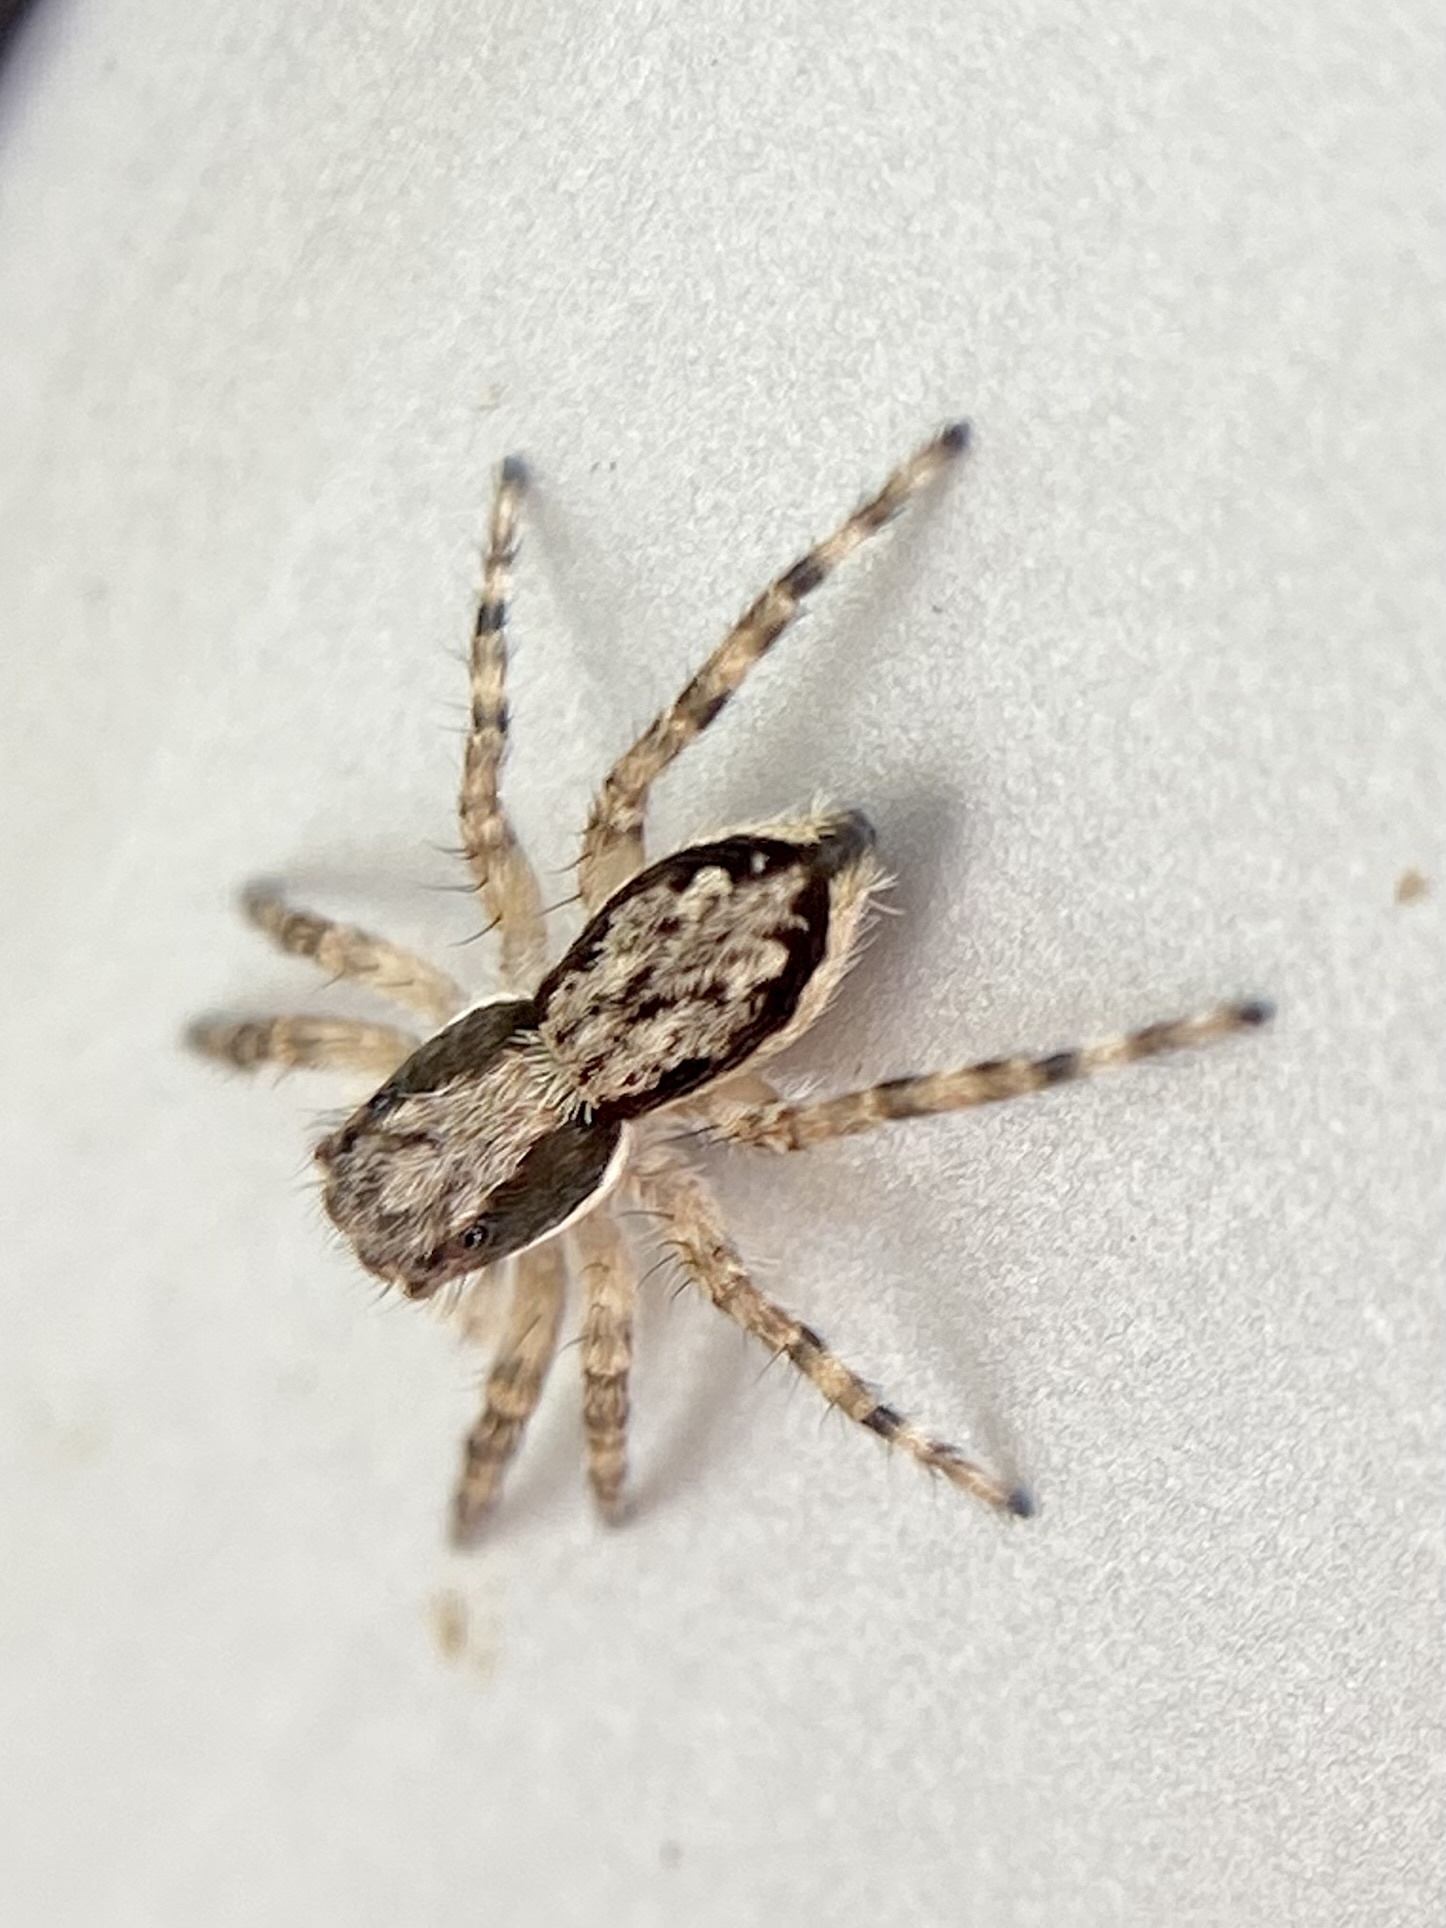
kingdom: Animalia
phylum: Arthropoda
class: Arachnida
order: Araneae
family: Salticidae
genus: Menemerus
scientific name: Menemerus bivittatus
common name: Gray wall jumper
